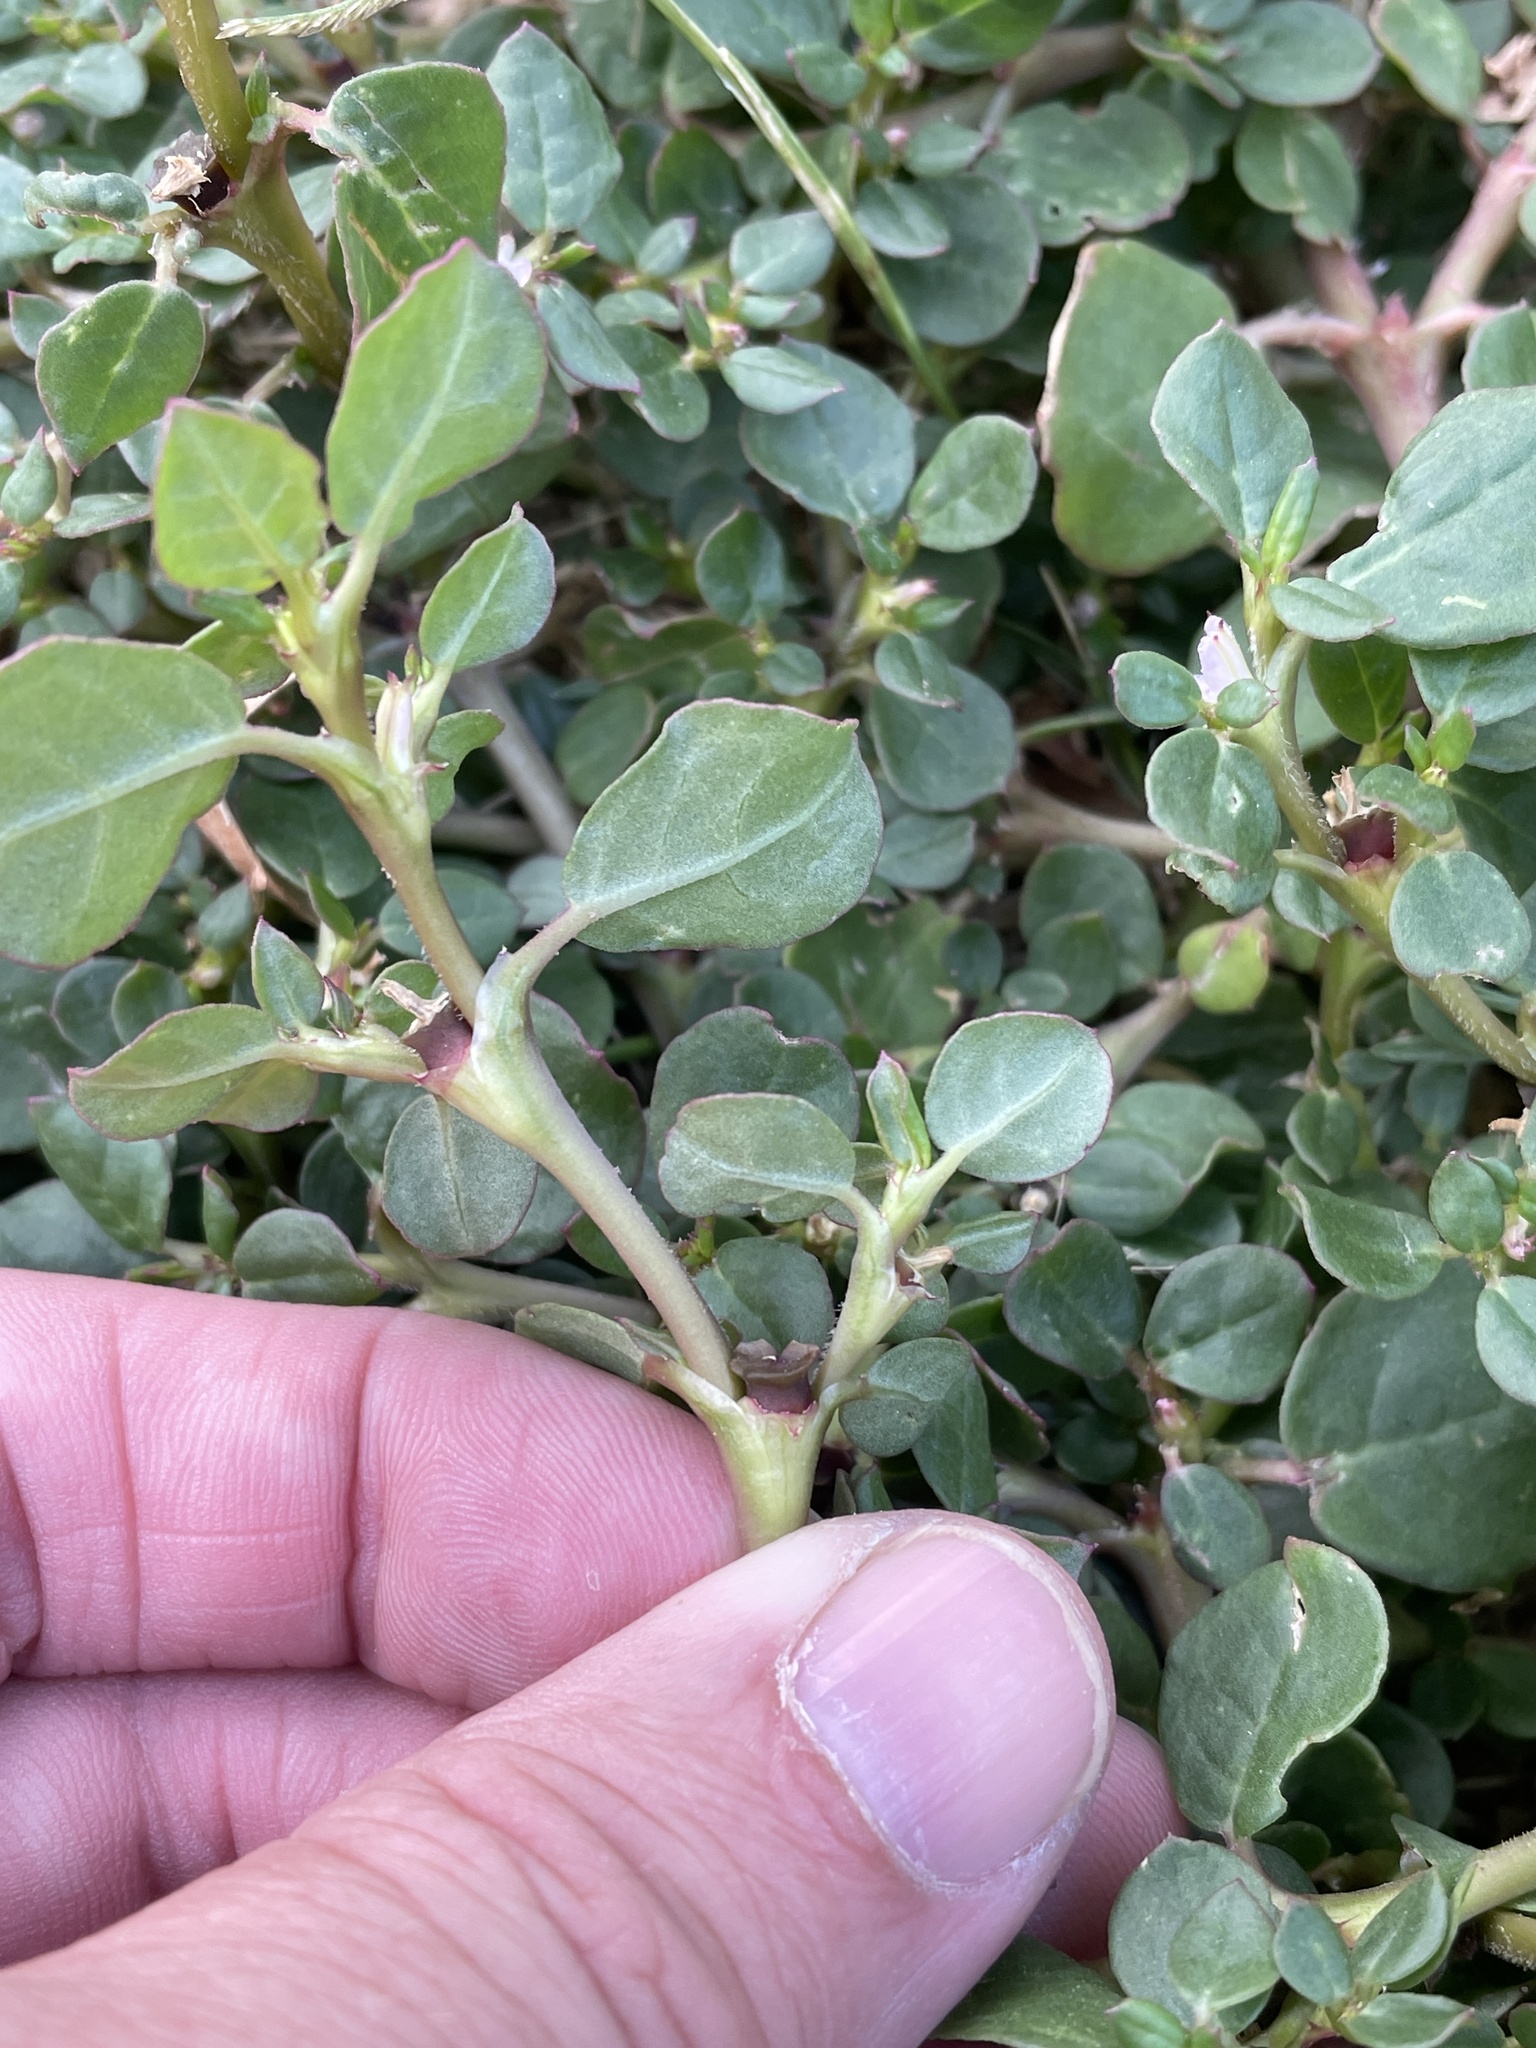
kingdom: Plantae
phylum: Tracheophyta
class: Magnoliopsida
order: Caryophyllales
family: Aizoaceae
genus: Trianthema
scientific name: Trianthema portulacastrum
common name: Desert horsepurslane
